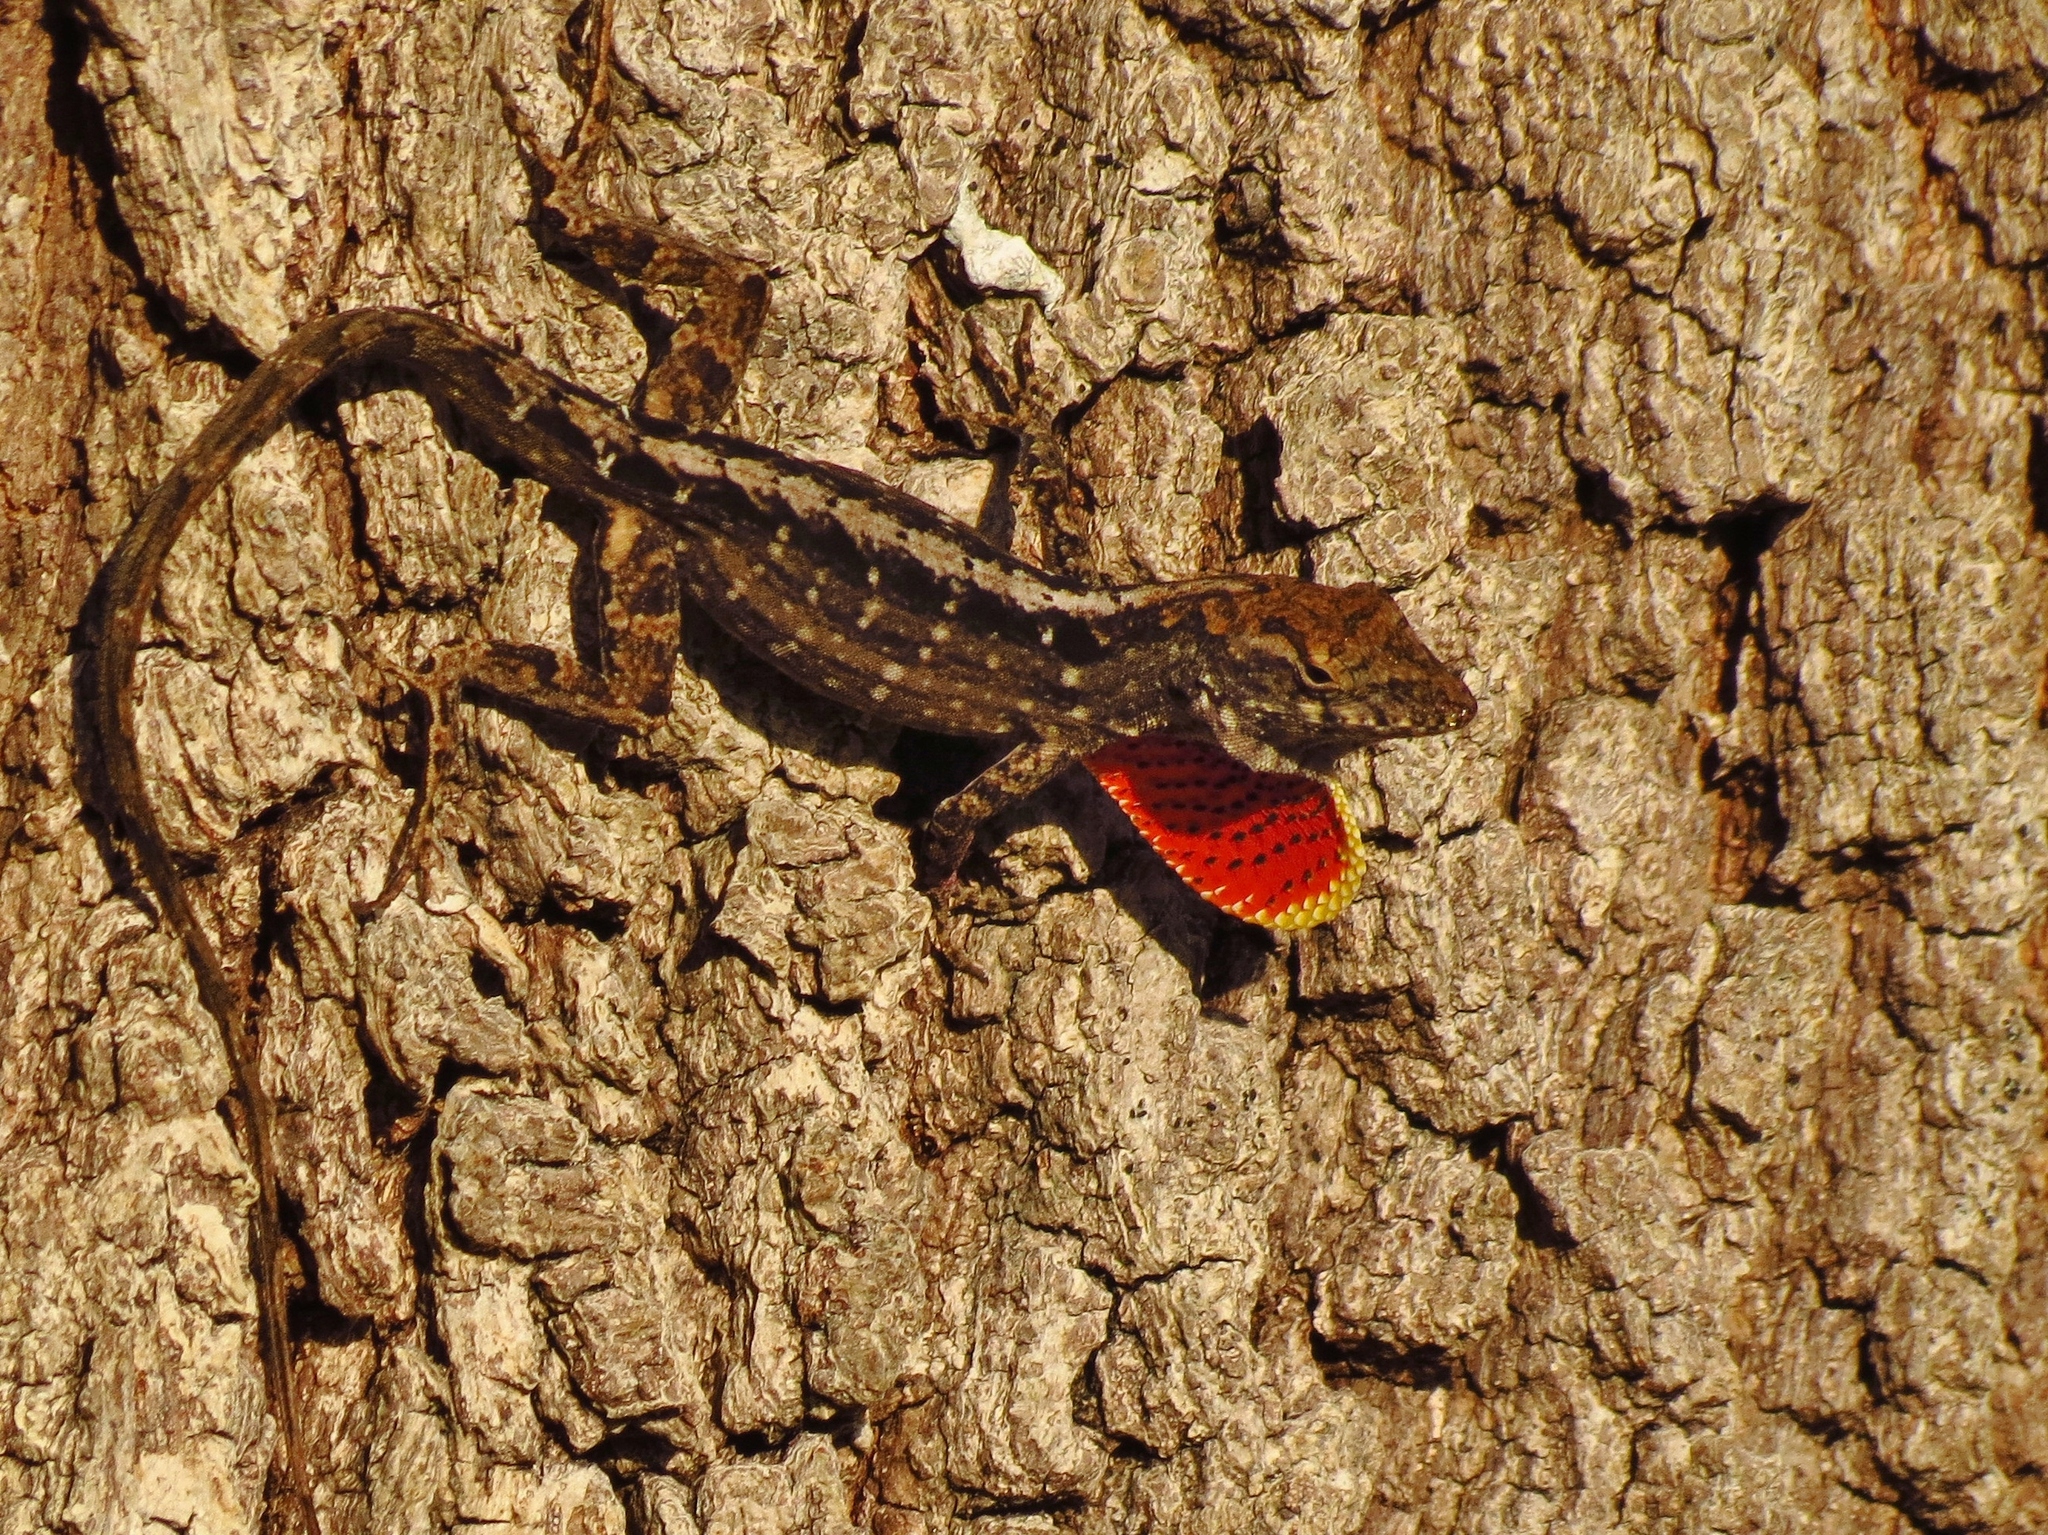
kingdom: Animalia
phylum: Chordata
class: Squamata
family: Dactyloidae
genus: Anolis
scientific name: Anolis sagrei
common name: Brown anole
